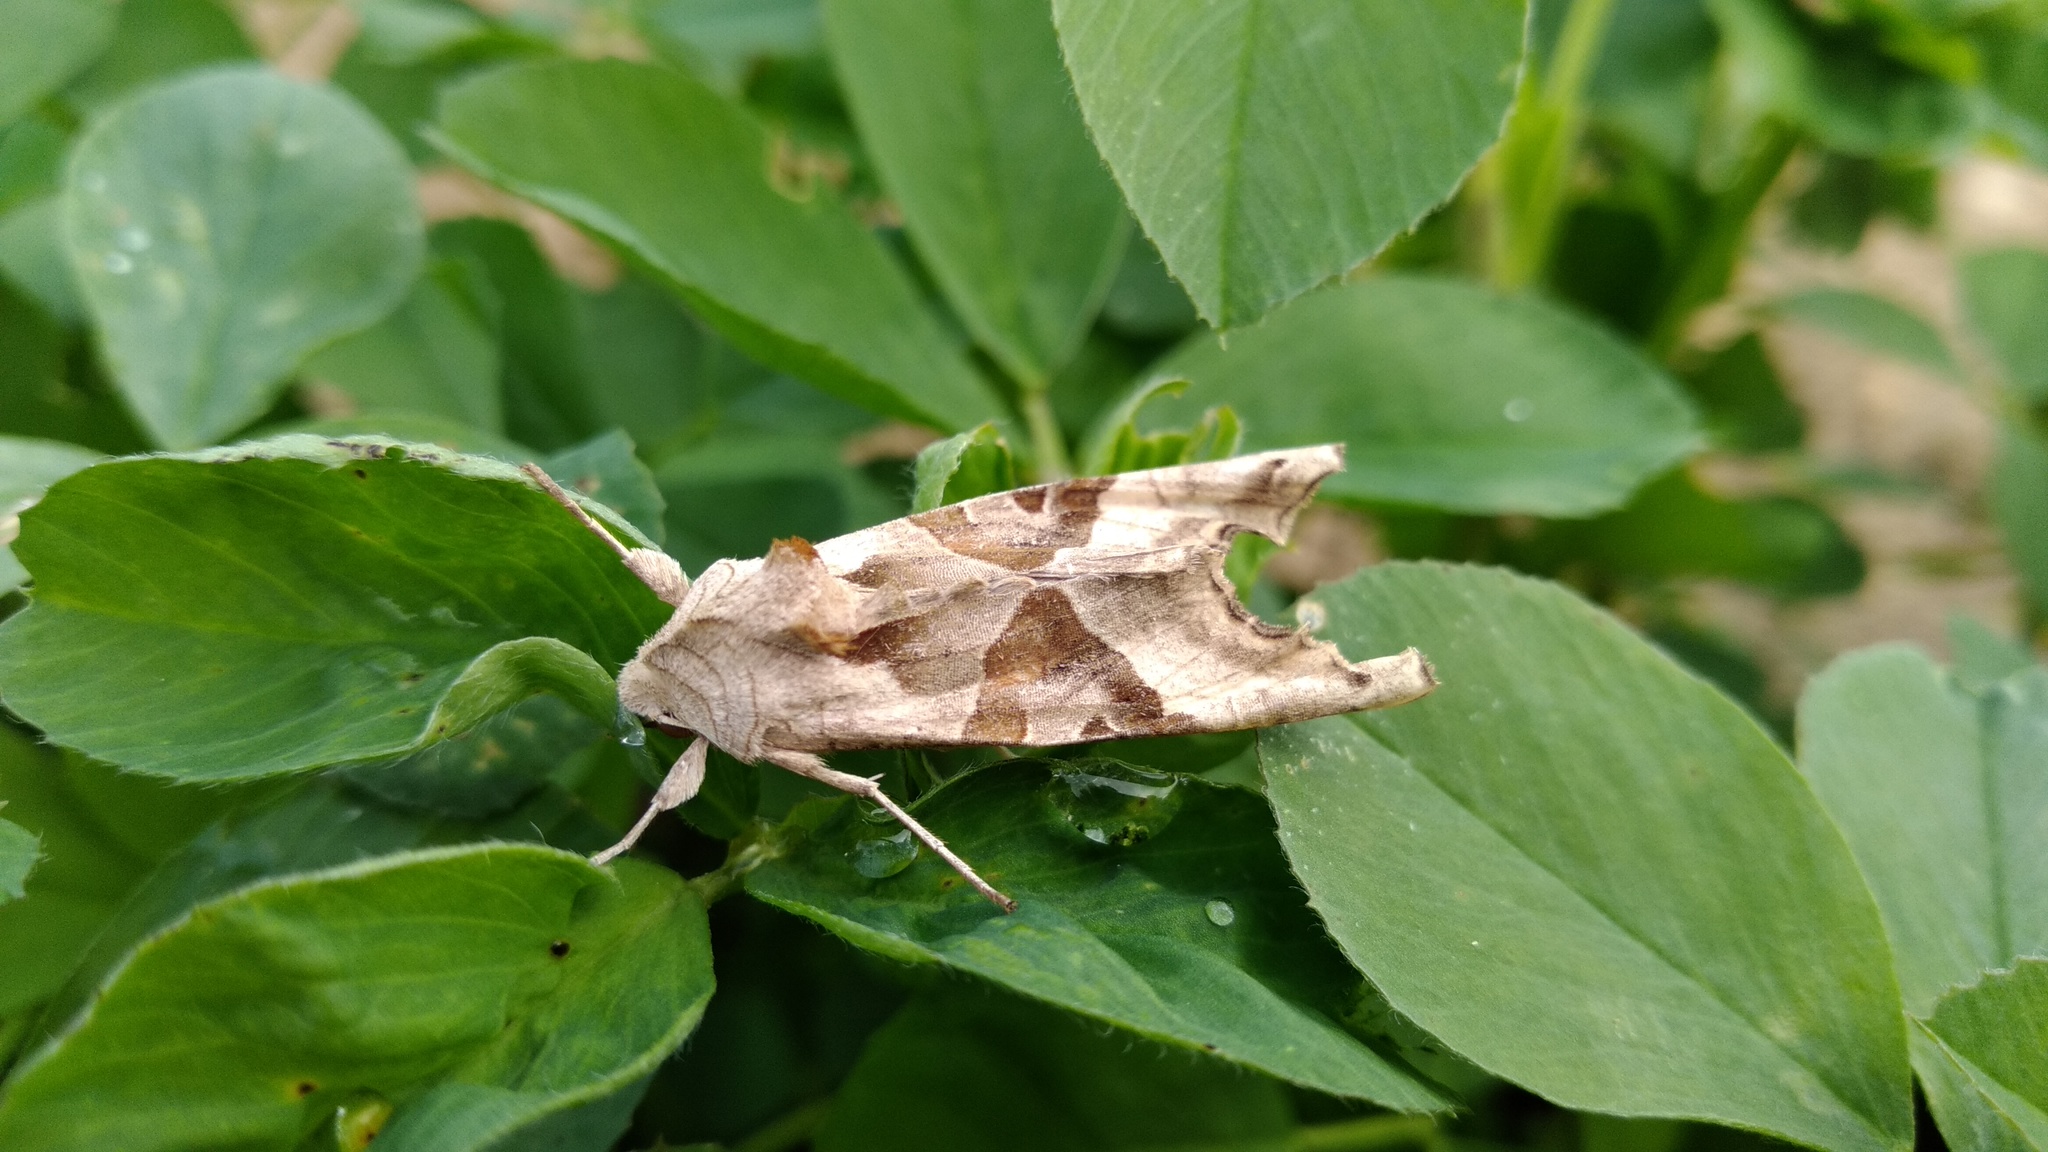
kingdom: Animalia
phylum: Arthropoda
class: Insecta
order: Lepidoptera
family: Noctuidae
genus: Phlogophora
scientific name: Phlogophora meticulosa
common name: Angle shades
